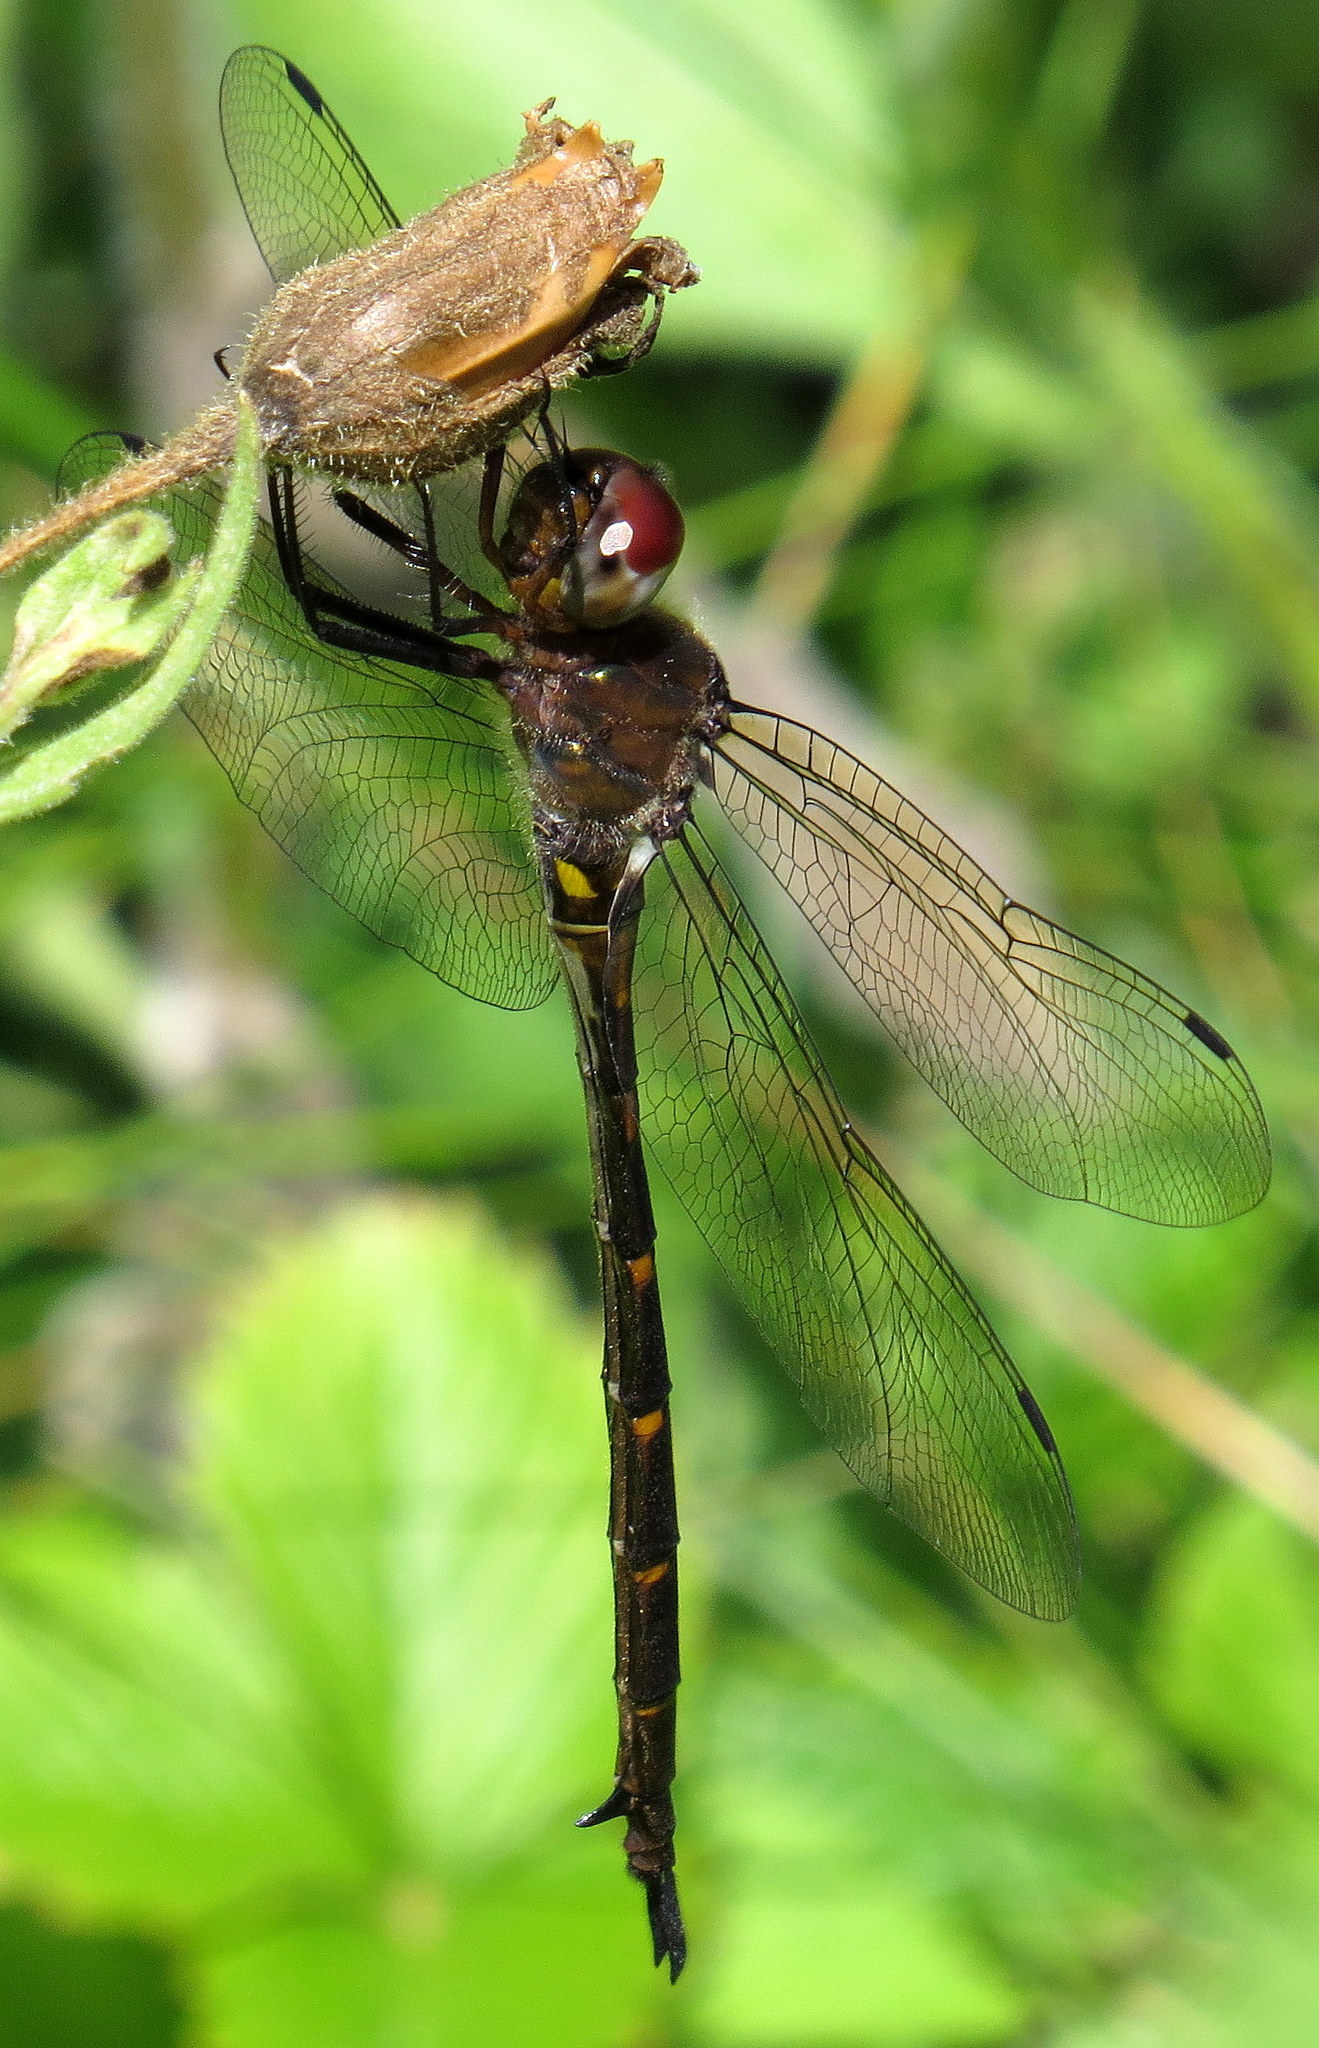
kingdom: Animalia
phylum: Arthropoda
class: Insecta
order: Odonata
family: Corduliidae
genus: Somatochlora
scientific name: Somatochlora linearis
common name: Mocha emerald
